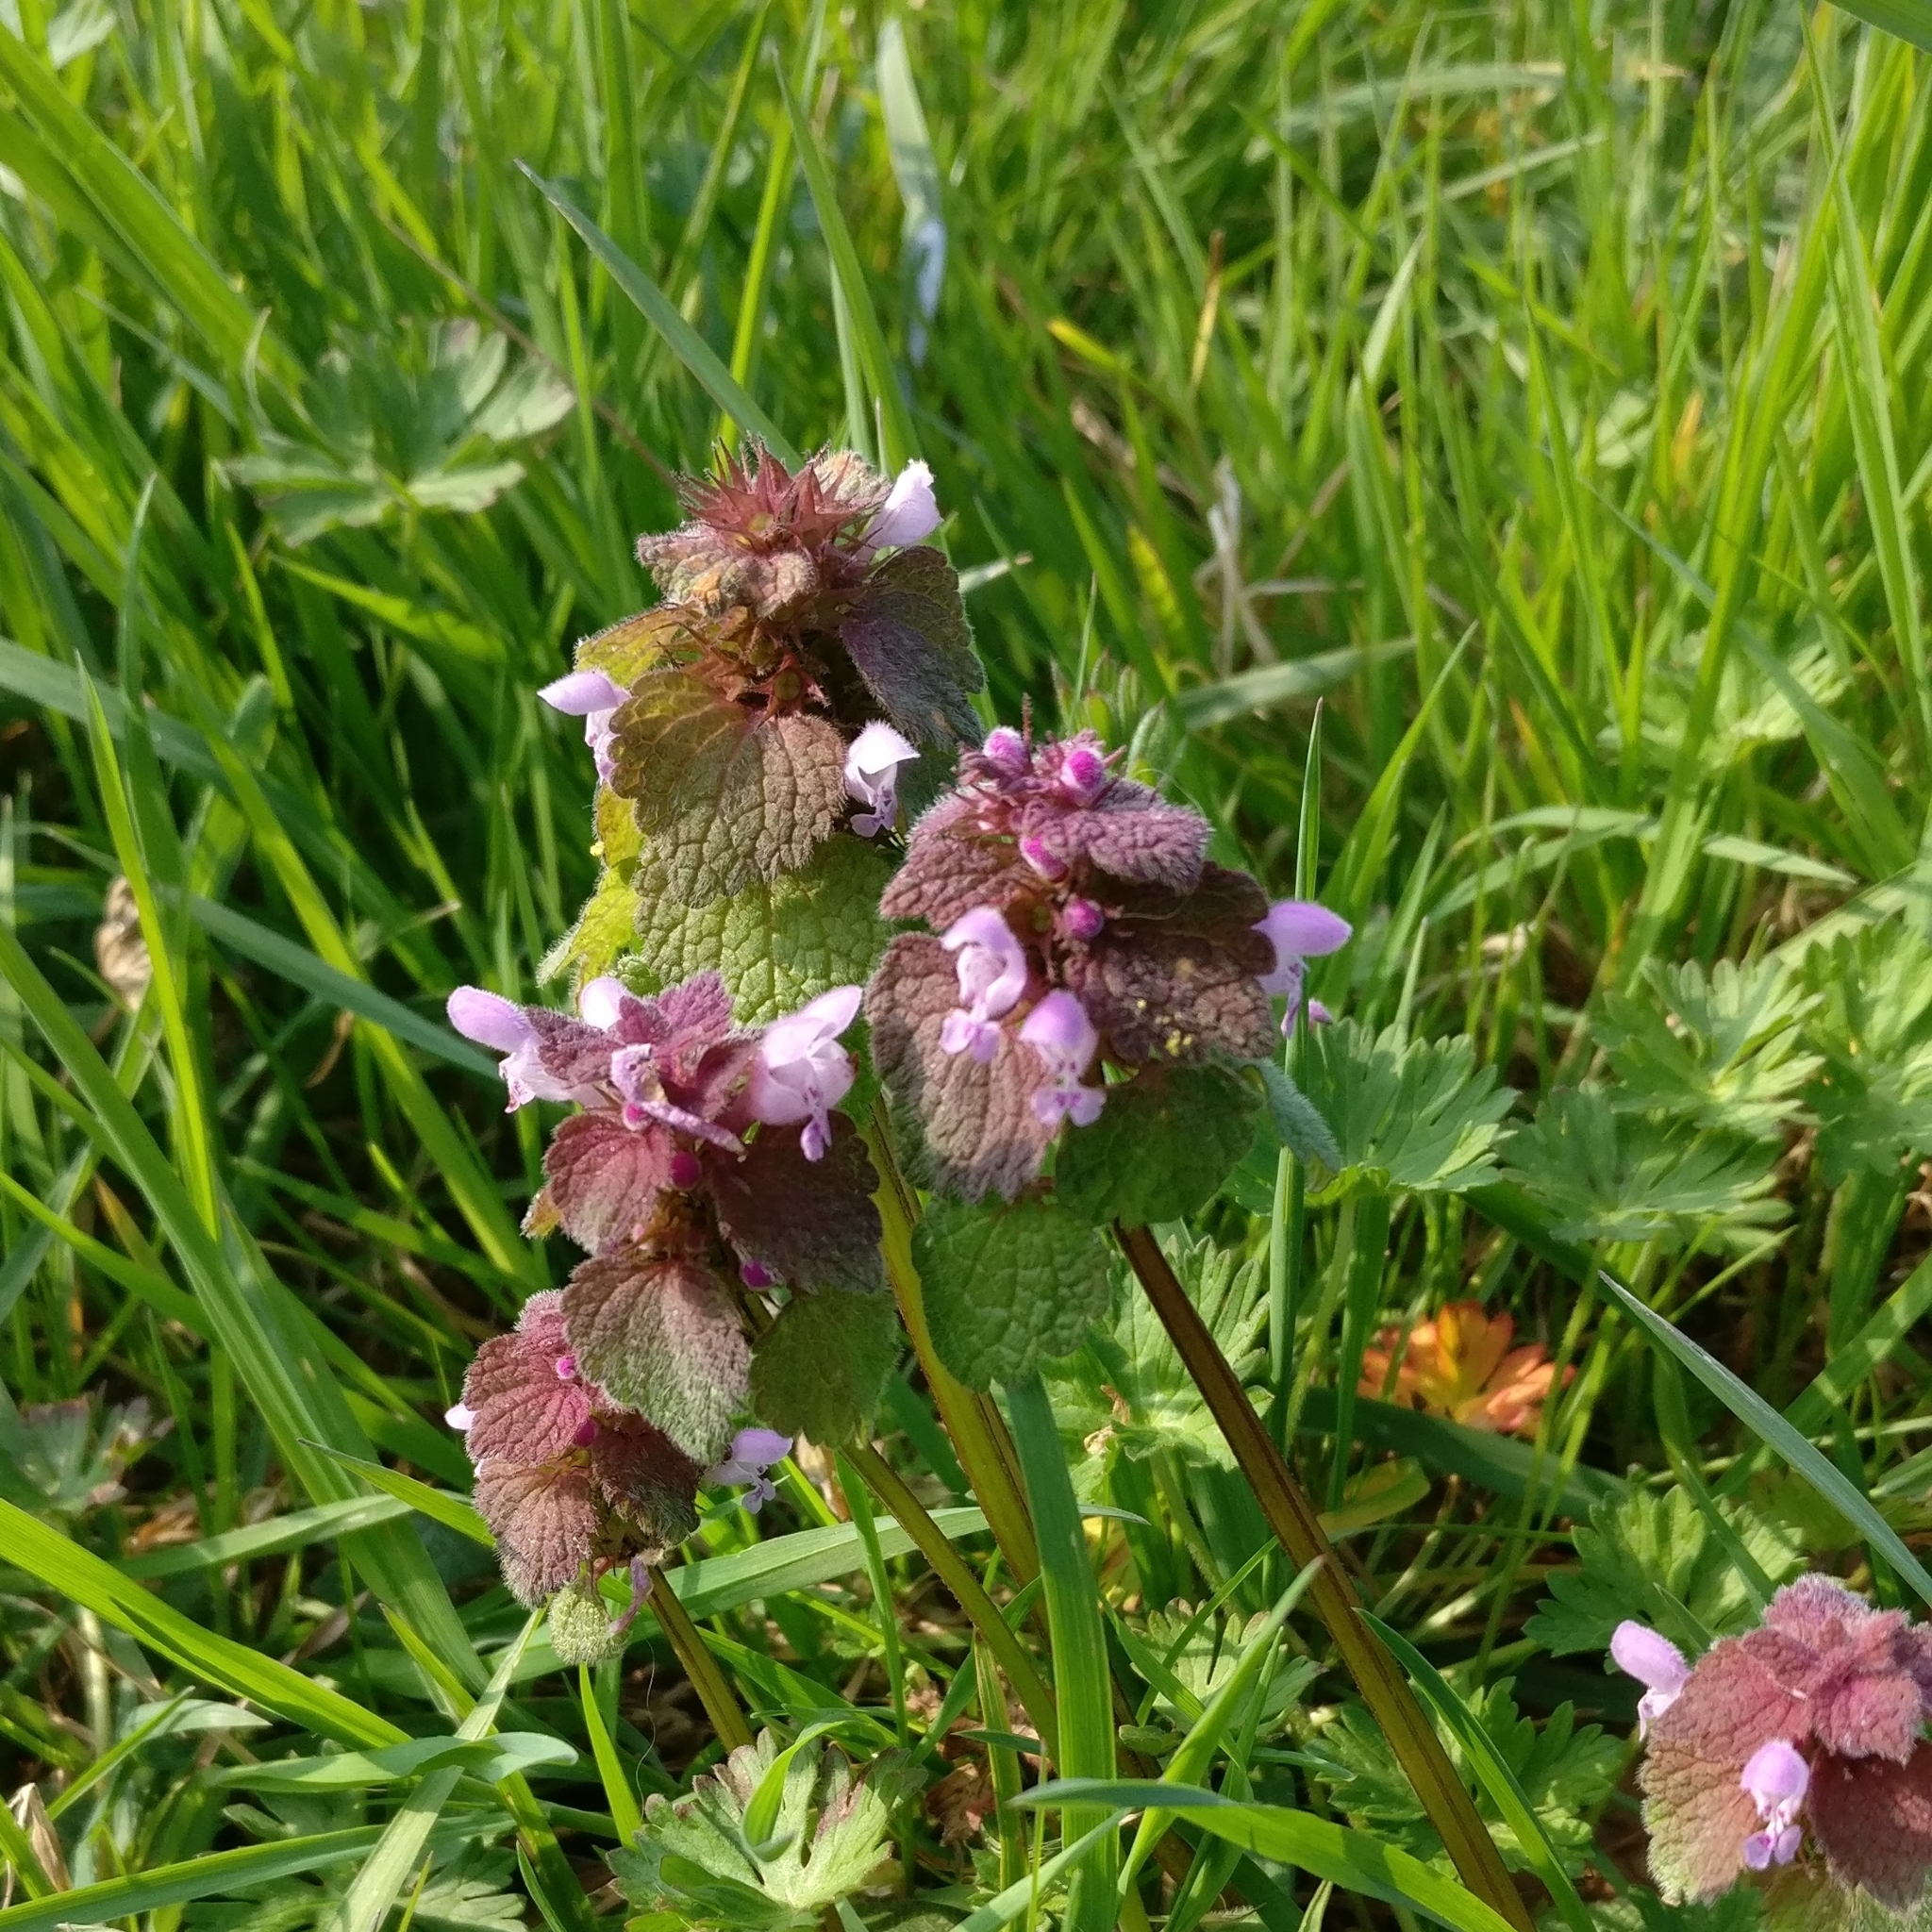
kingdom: Plantae
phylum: Tracheophyta
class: Magnoliopsida
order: Lamiales
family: Lamiaceae
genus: Lamium
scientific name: Lamium purpureum
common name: Red dead-nettle
